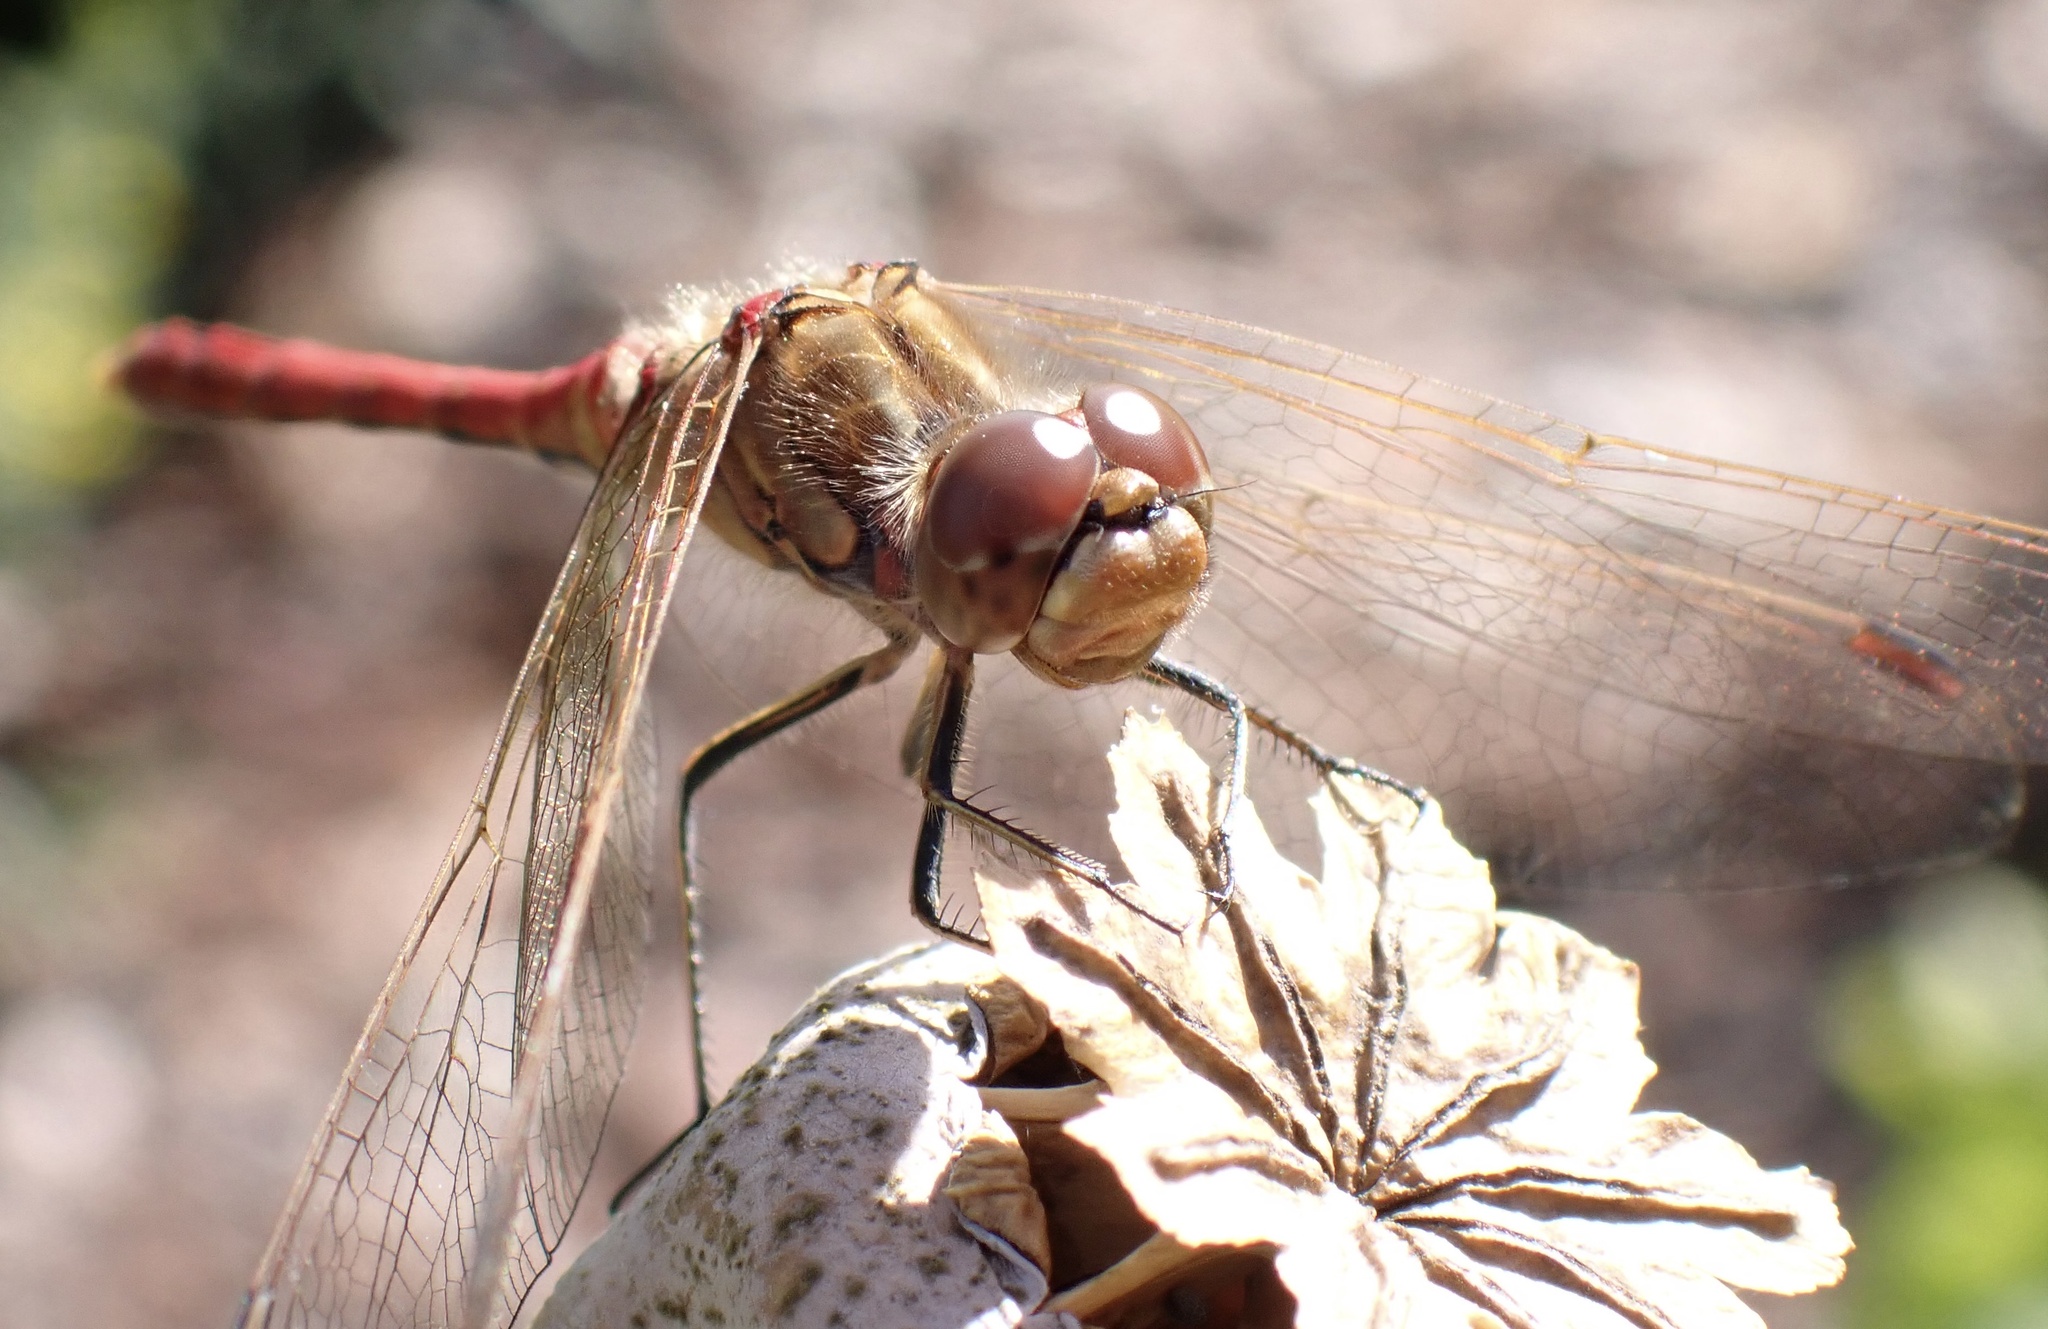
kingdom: Animalia
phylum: Arthropoda
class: Insecta
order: Odonata
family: Libellulidae
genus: Sympetrum
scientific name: Sympetrum vulgatum
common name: Vagrant darter
